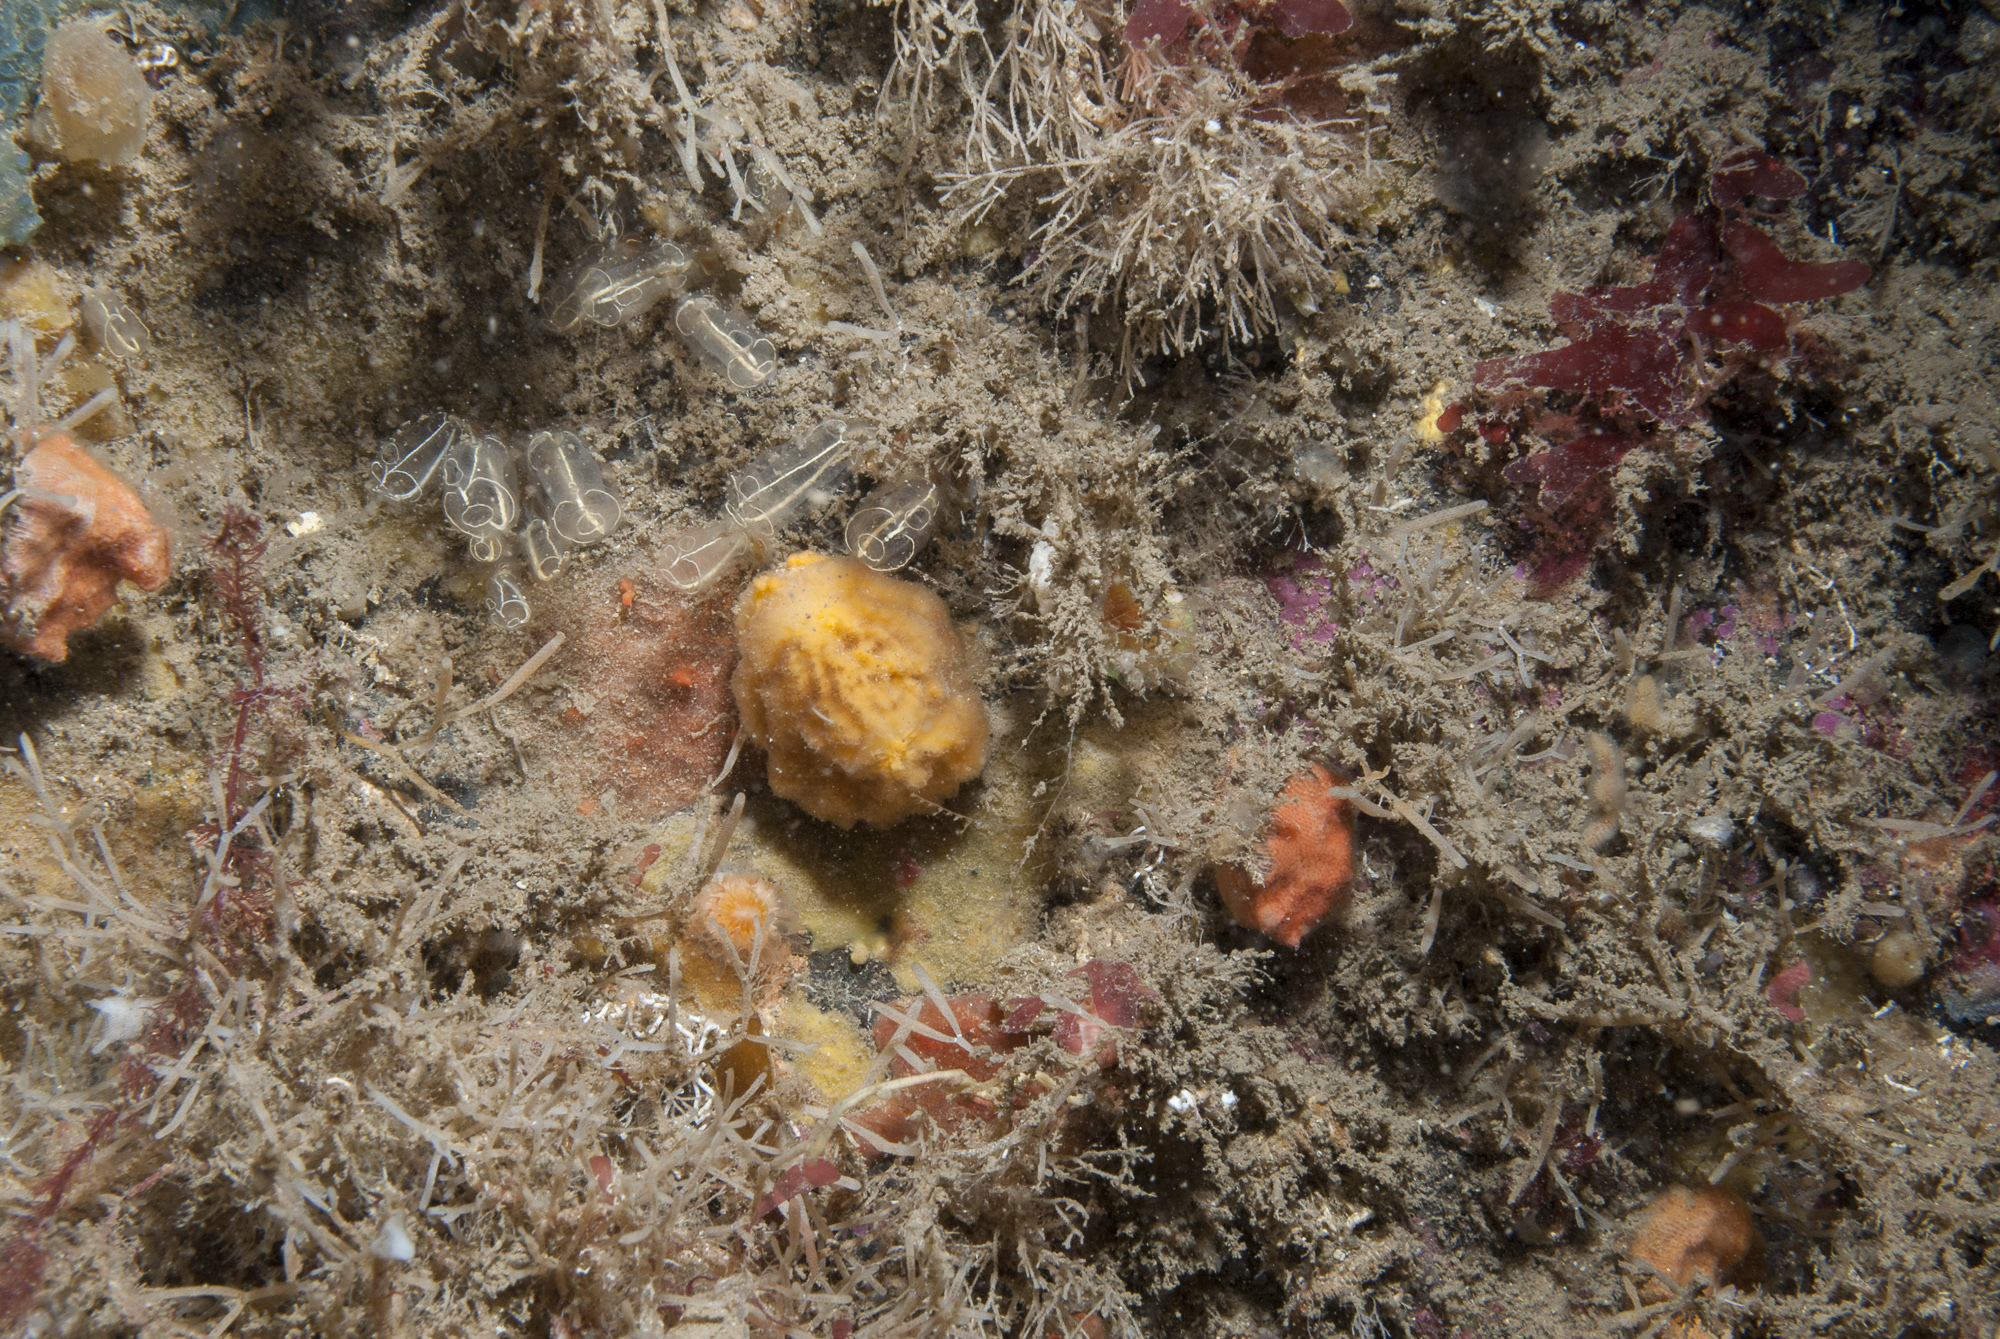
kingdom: Animalia
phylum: Porifera
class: Demospongiae
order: Axinellida
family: Axinellidae
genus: Axinella
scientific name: Axinella parva
